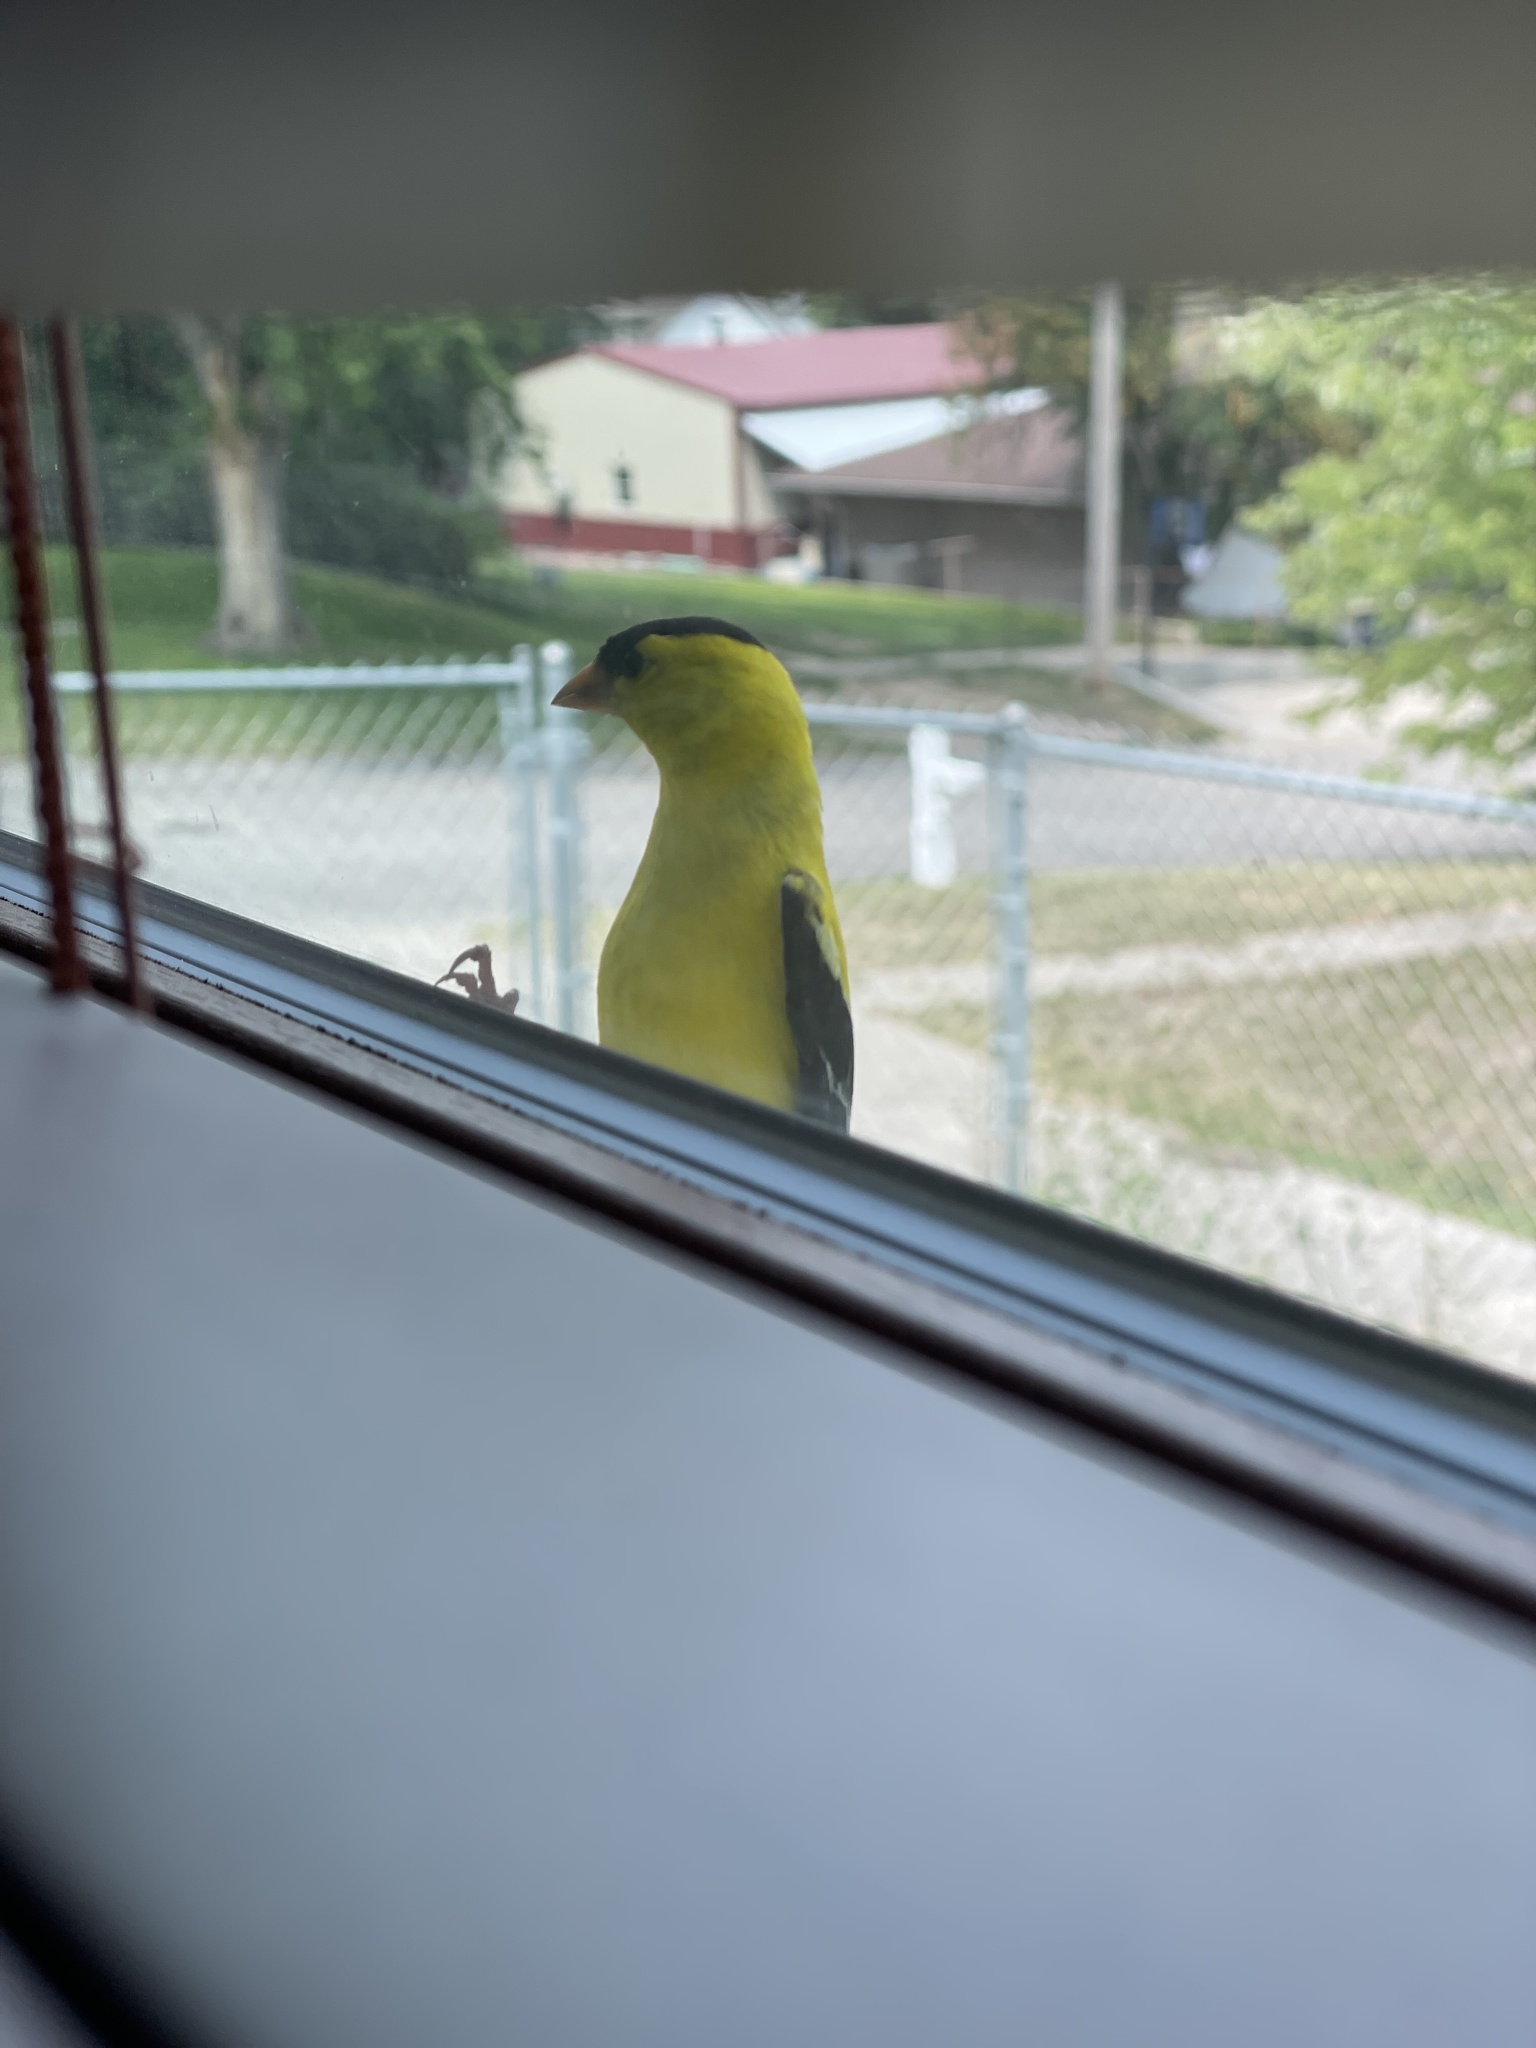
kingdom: Animalia
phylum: Chordata
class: Aves
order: Passeriformes
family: Fringillidae
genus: Spinus
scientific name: Spinus tristis
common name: American goldfinch
